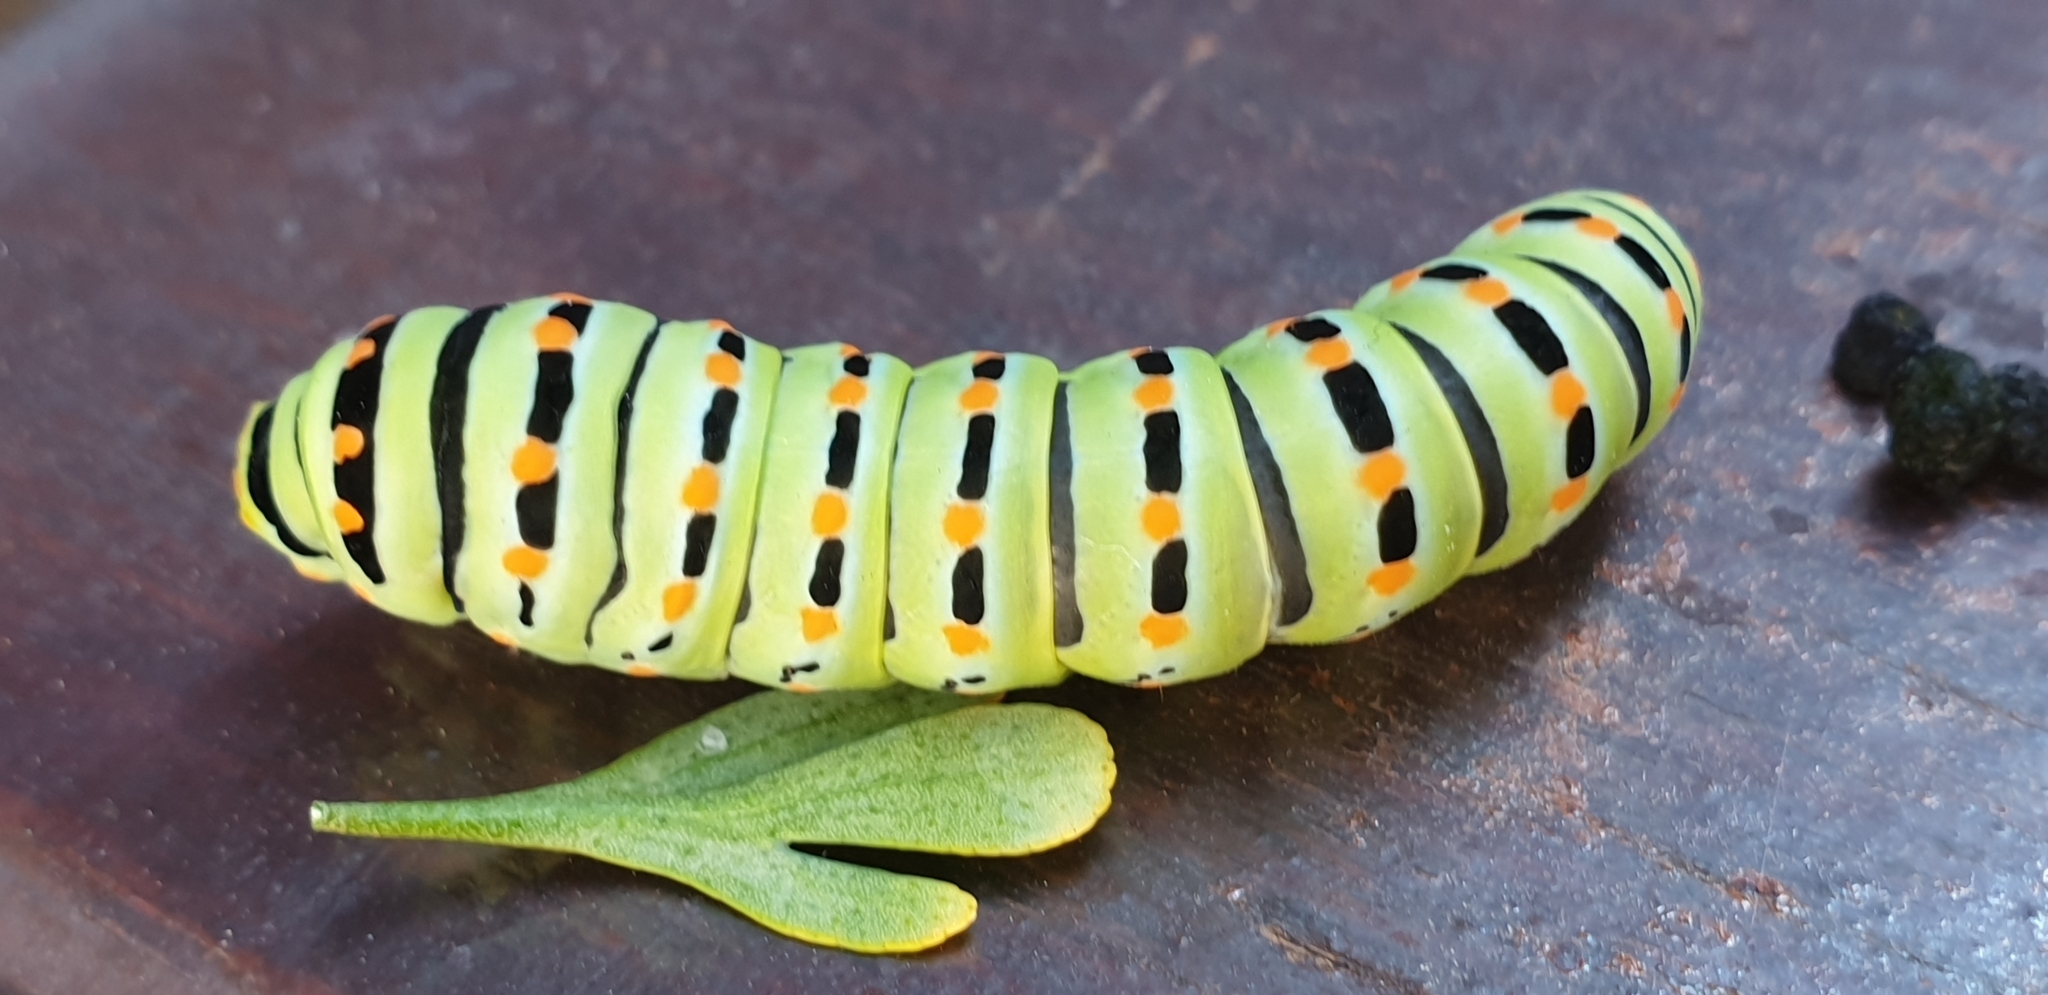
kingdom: Animalia
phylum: Arthropoda
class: Insecta
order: Lepidoptera
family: Papilionidae
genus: Papilio
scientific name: Papilio machaon
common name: Swallowtail
